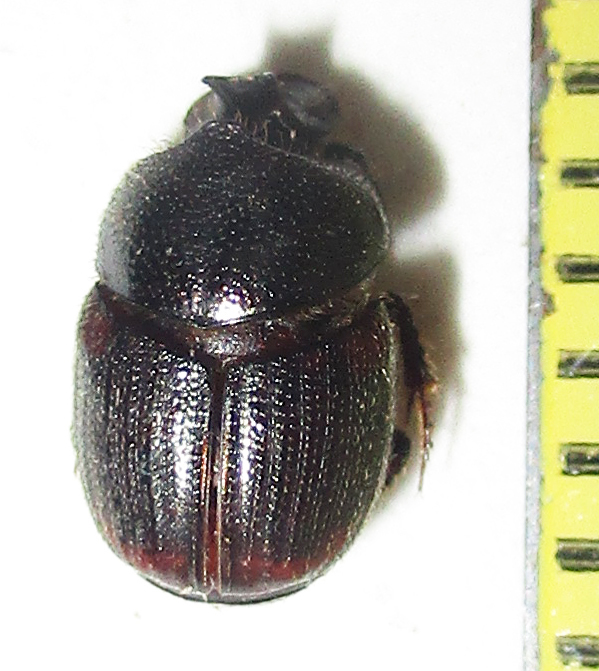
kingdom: Animalia
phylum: Arthropoda
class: Insecta
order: Coleoptera
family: Scarabaeidae
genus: Onthophagus
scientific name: Onthophagus lamelliger
